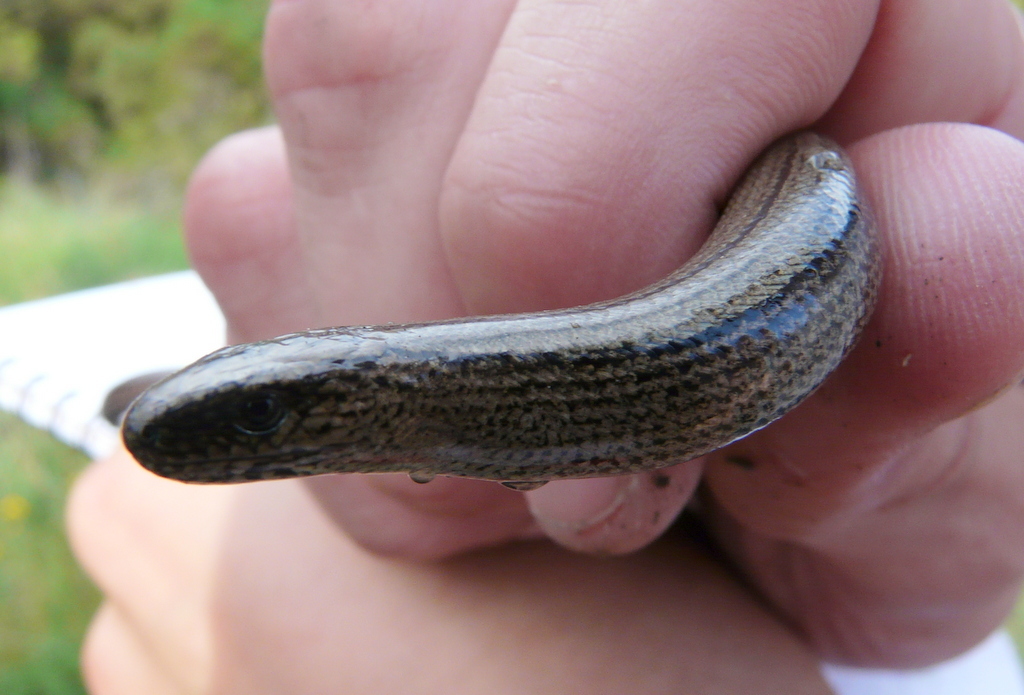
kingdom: Animalia
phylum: Chordata
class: Squamata
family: Anguidae
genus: Anguis
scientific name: Anguis fragilis
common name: Slow worm
